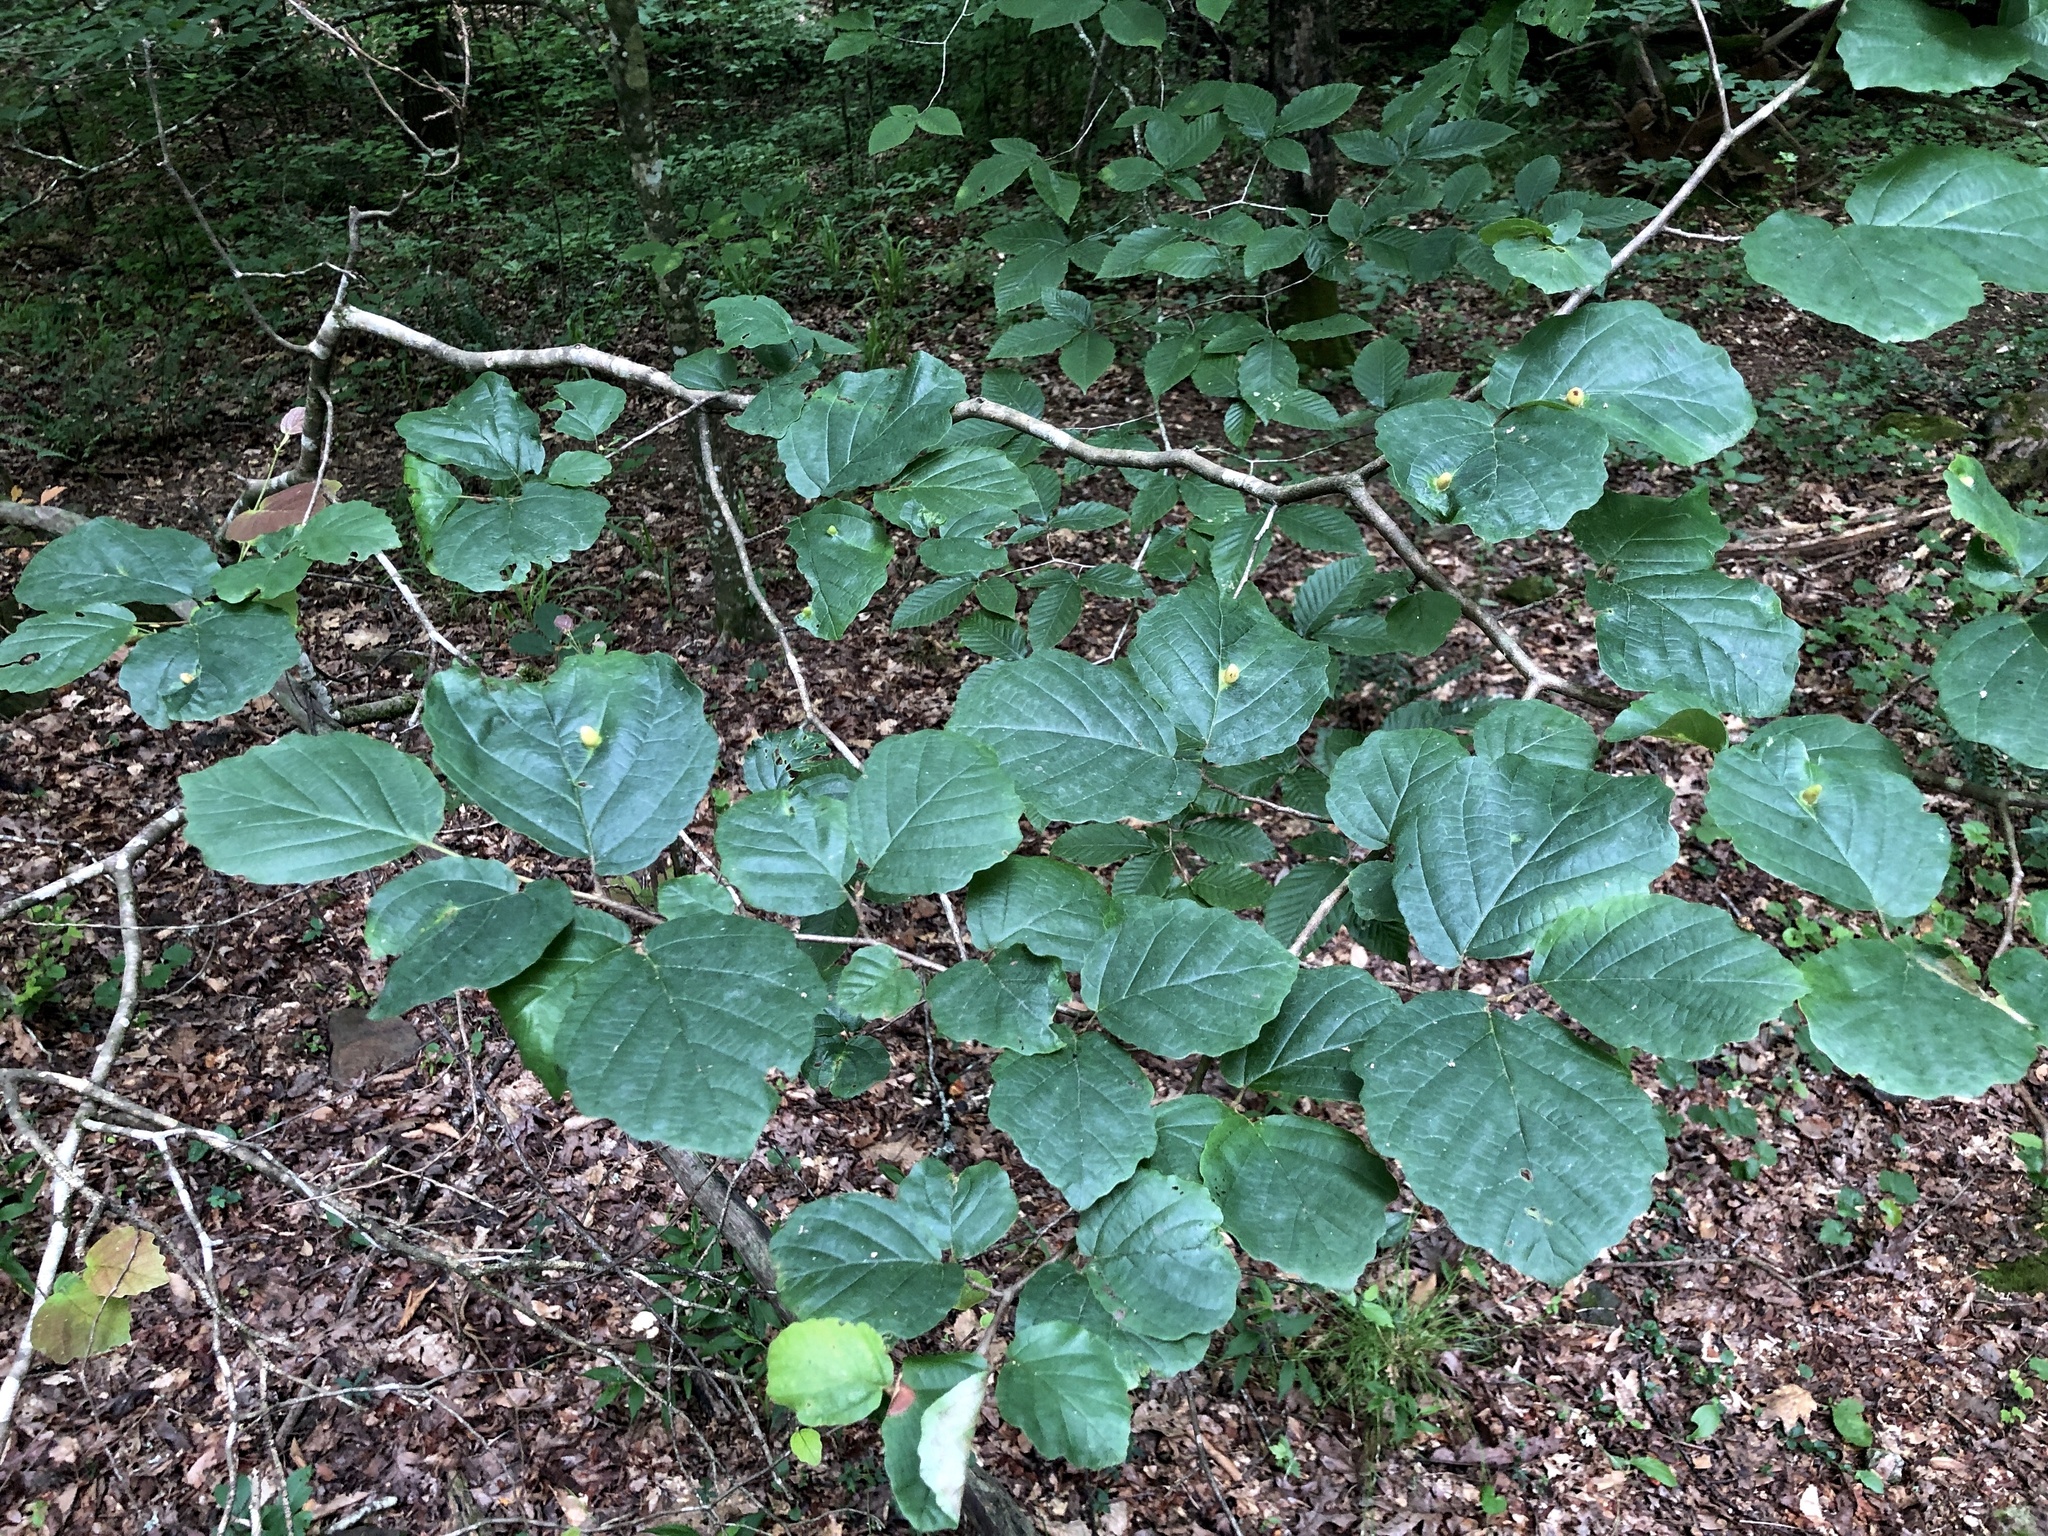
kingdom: Plantae
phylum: Tracheophyta
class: Magnoliopsida
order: Saxifragales
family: Hamamelidaceae
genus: Hamamelis
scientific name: Hamamelis virginiana
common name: Witch-hazel
